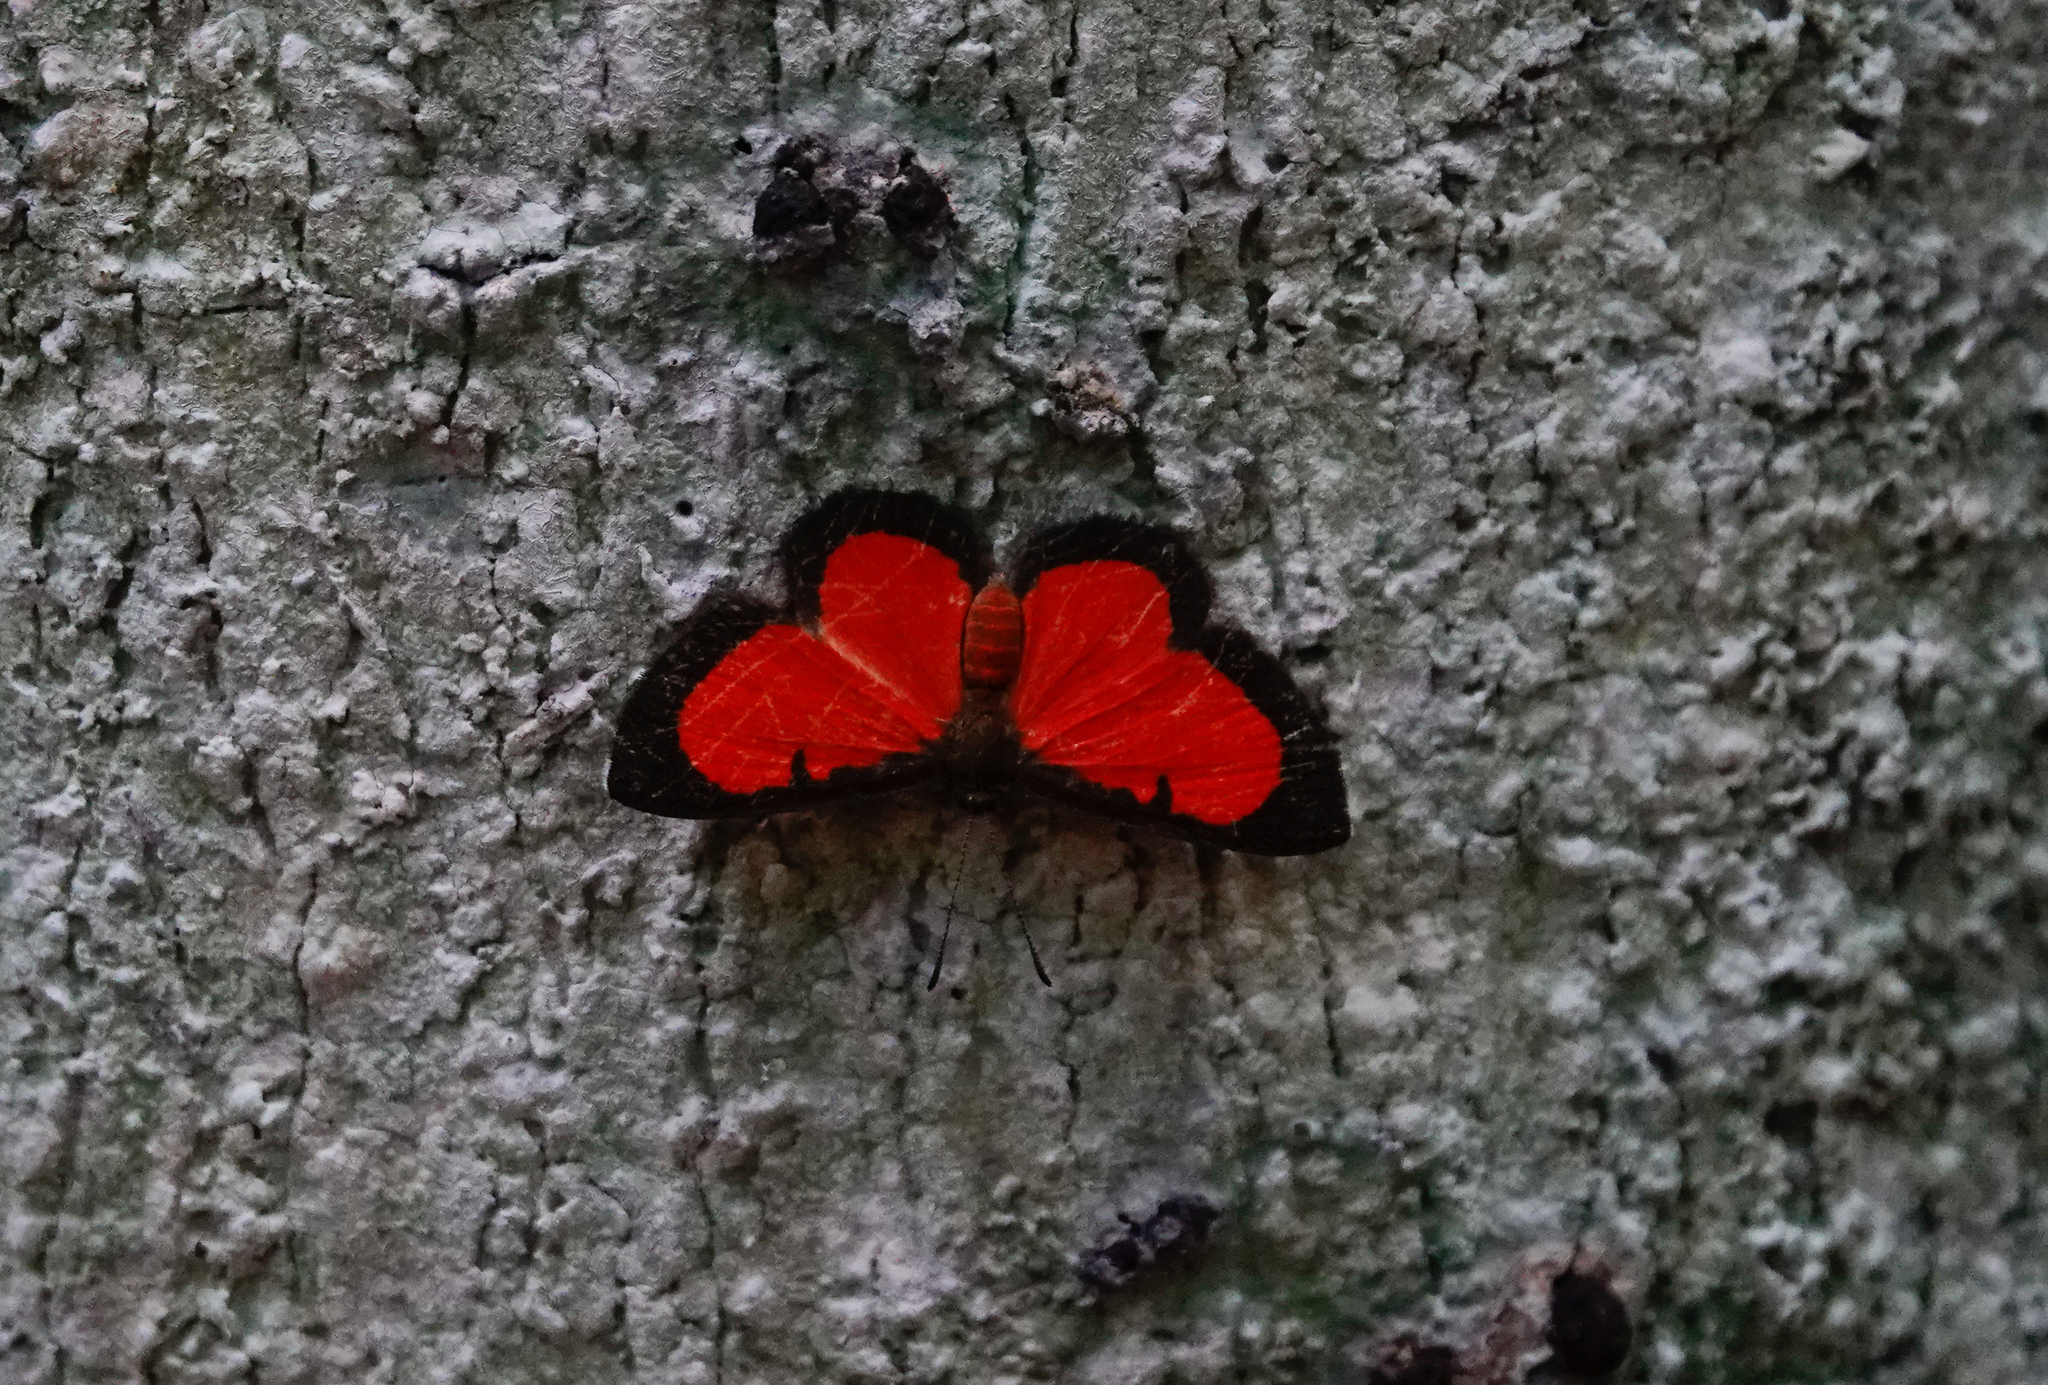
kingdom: Animalia
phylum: Arthropoda
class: Insecta
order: Lepidoptera
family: Lycaenidae
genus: Mesene
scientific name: Mesene phareus
